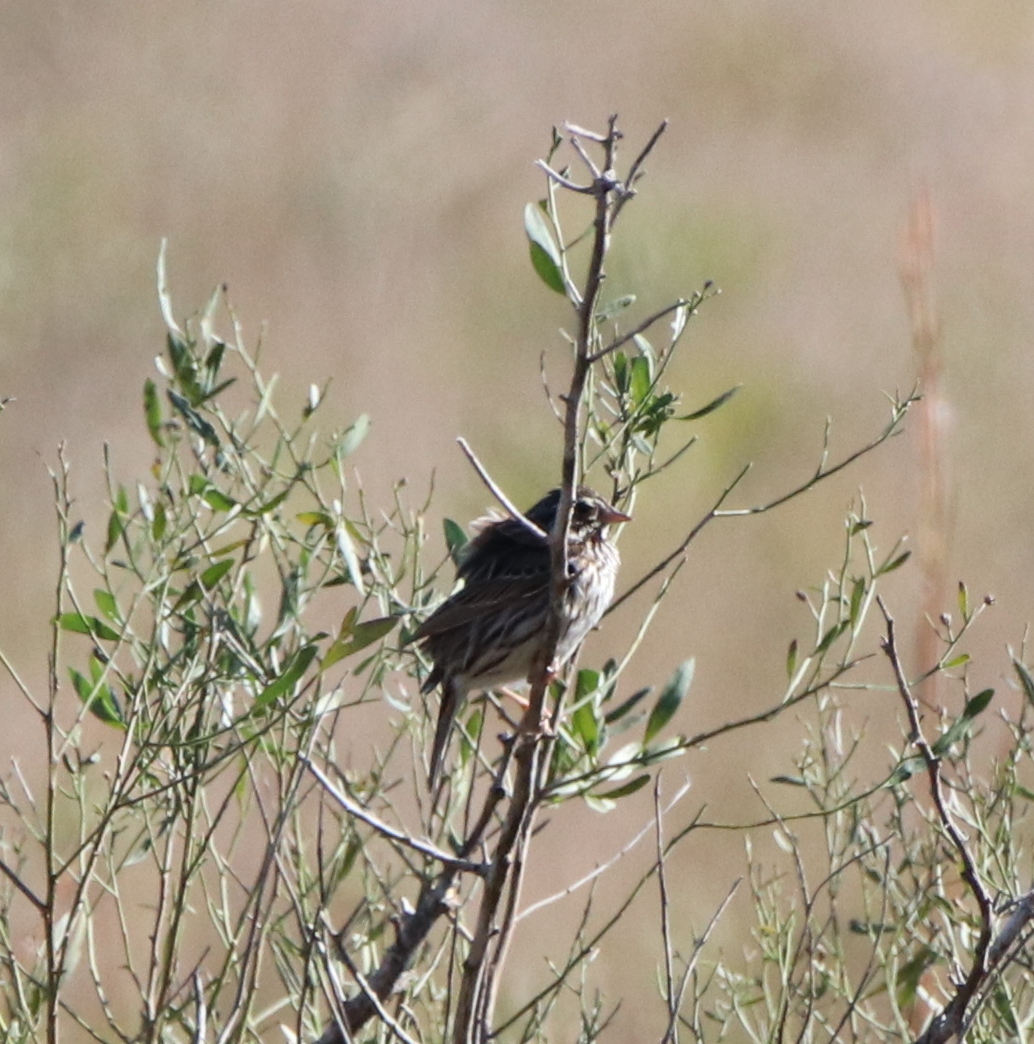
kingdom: Animalia
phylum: Chordata
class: Aves
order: Passeriformes
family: Passerellidae
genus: Passerculus
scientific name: Passerculus sandwichensis
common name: Savannah sparrow
